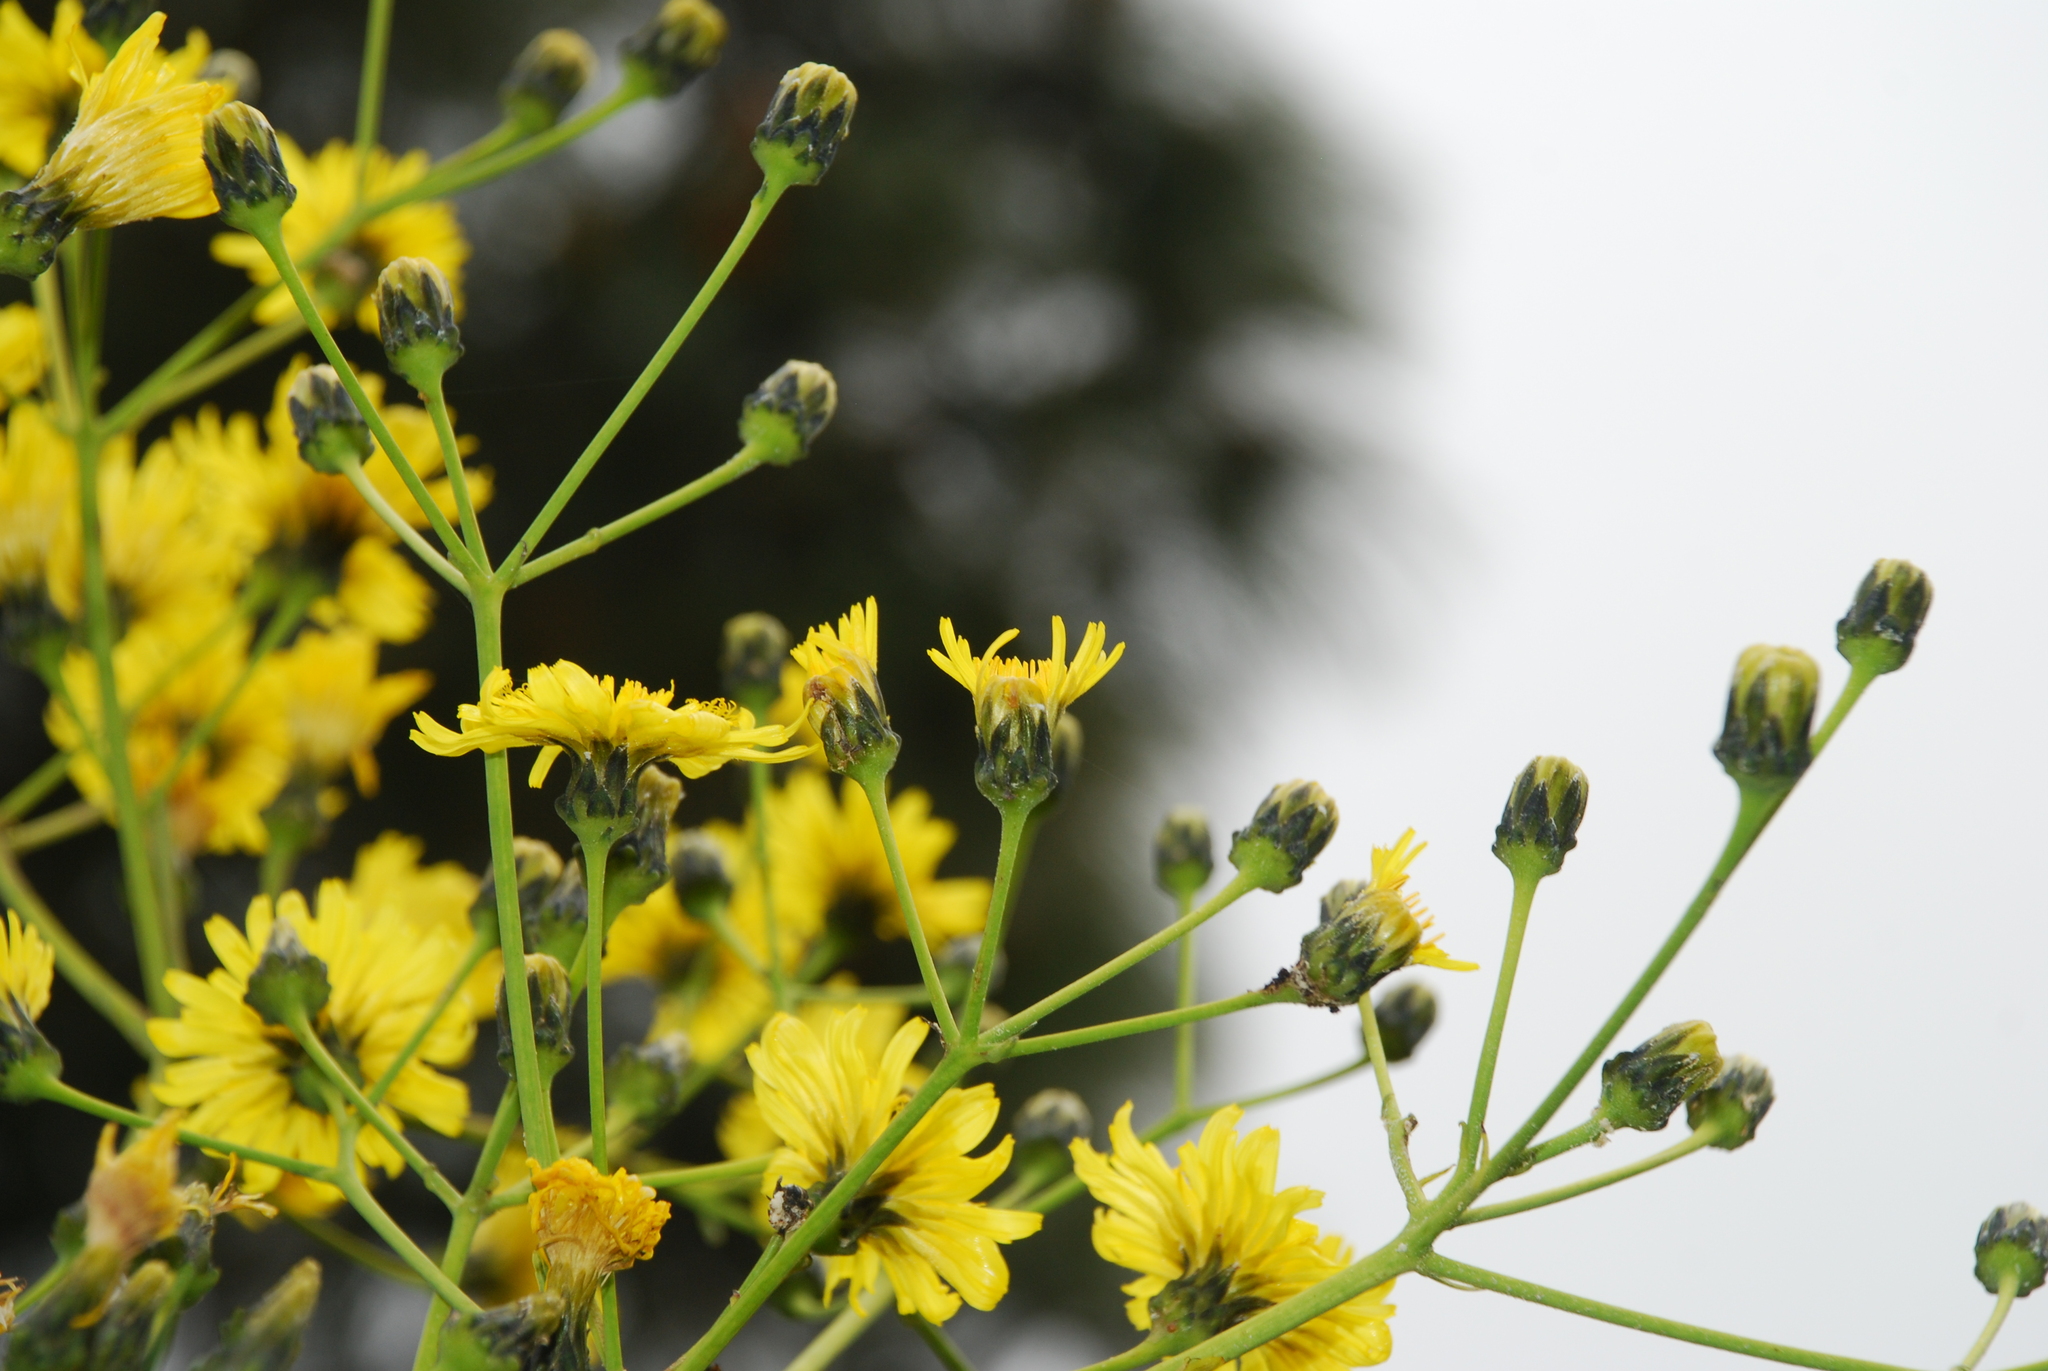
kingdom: Plantae
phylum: Tracheophyta
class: Magnoliopsida
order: Asterales
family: Asteraceae
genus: Sonchus
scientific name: Sonchus canariensis
